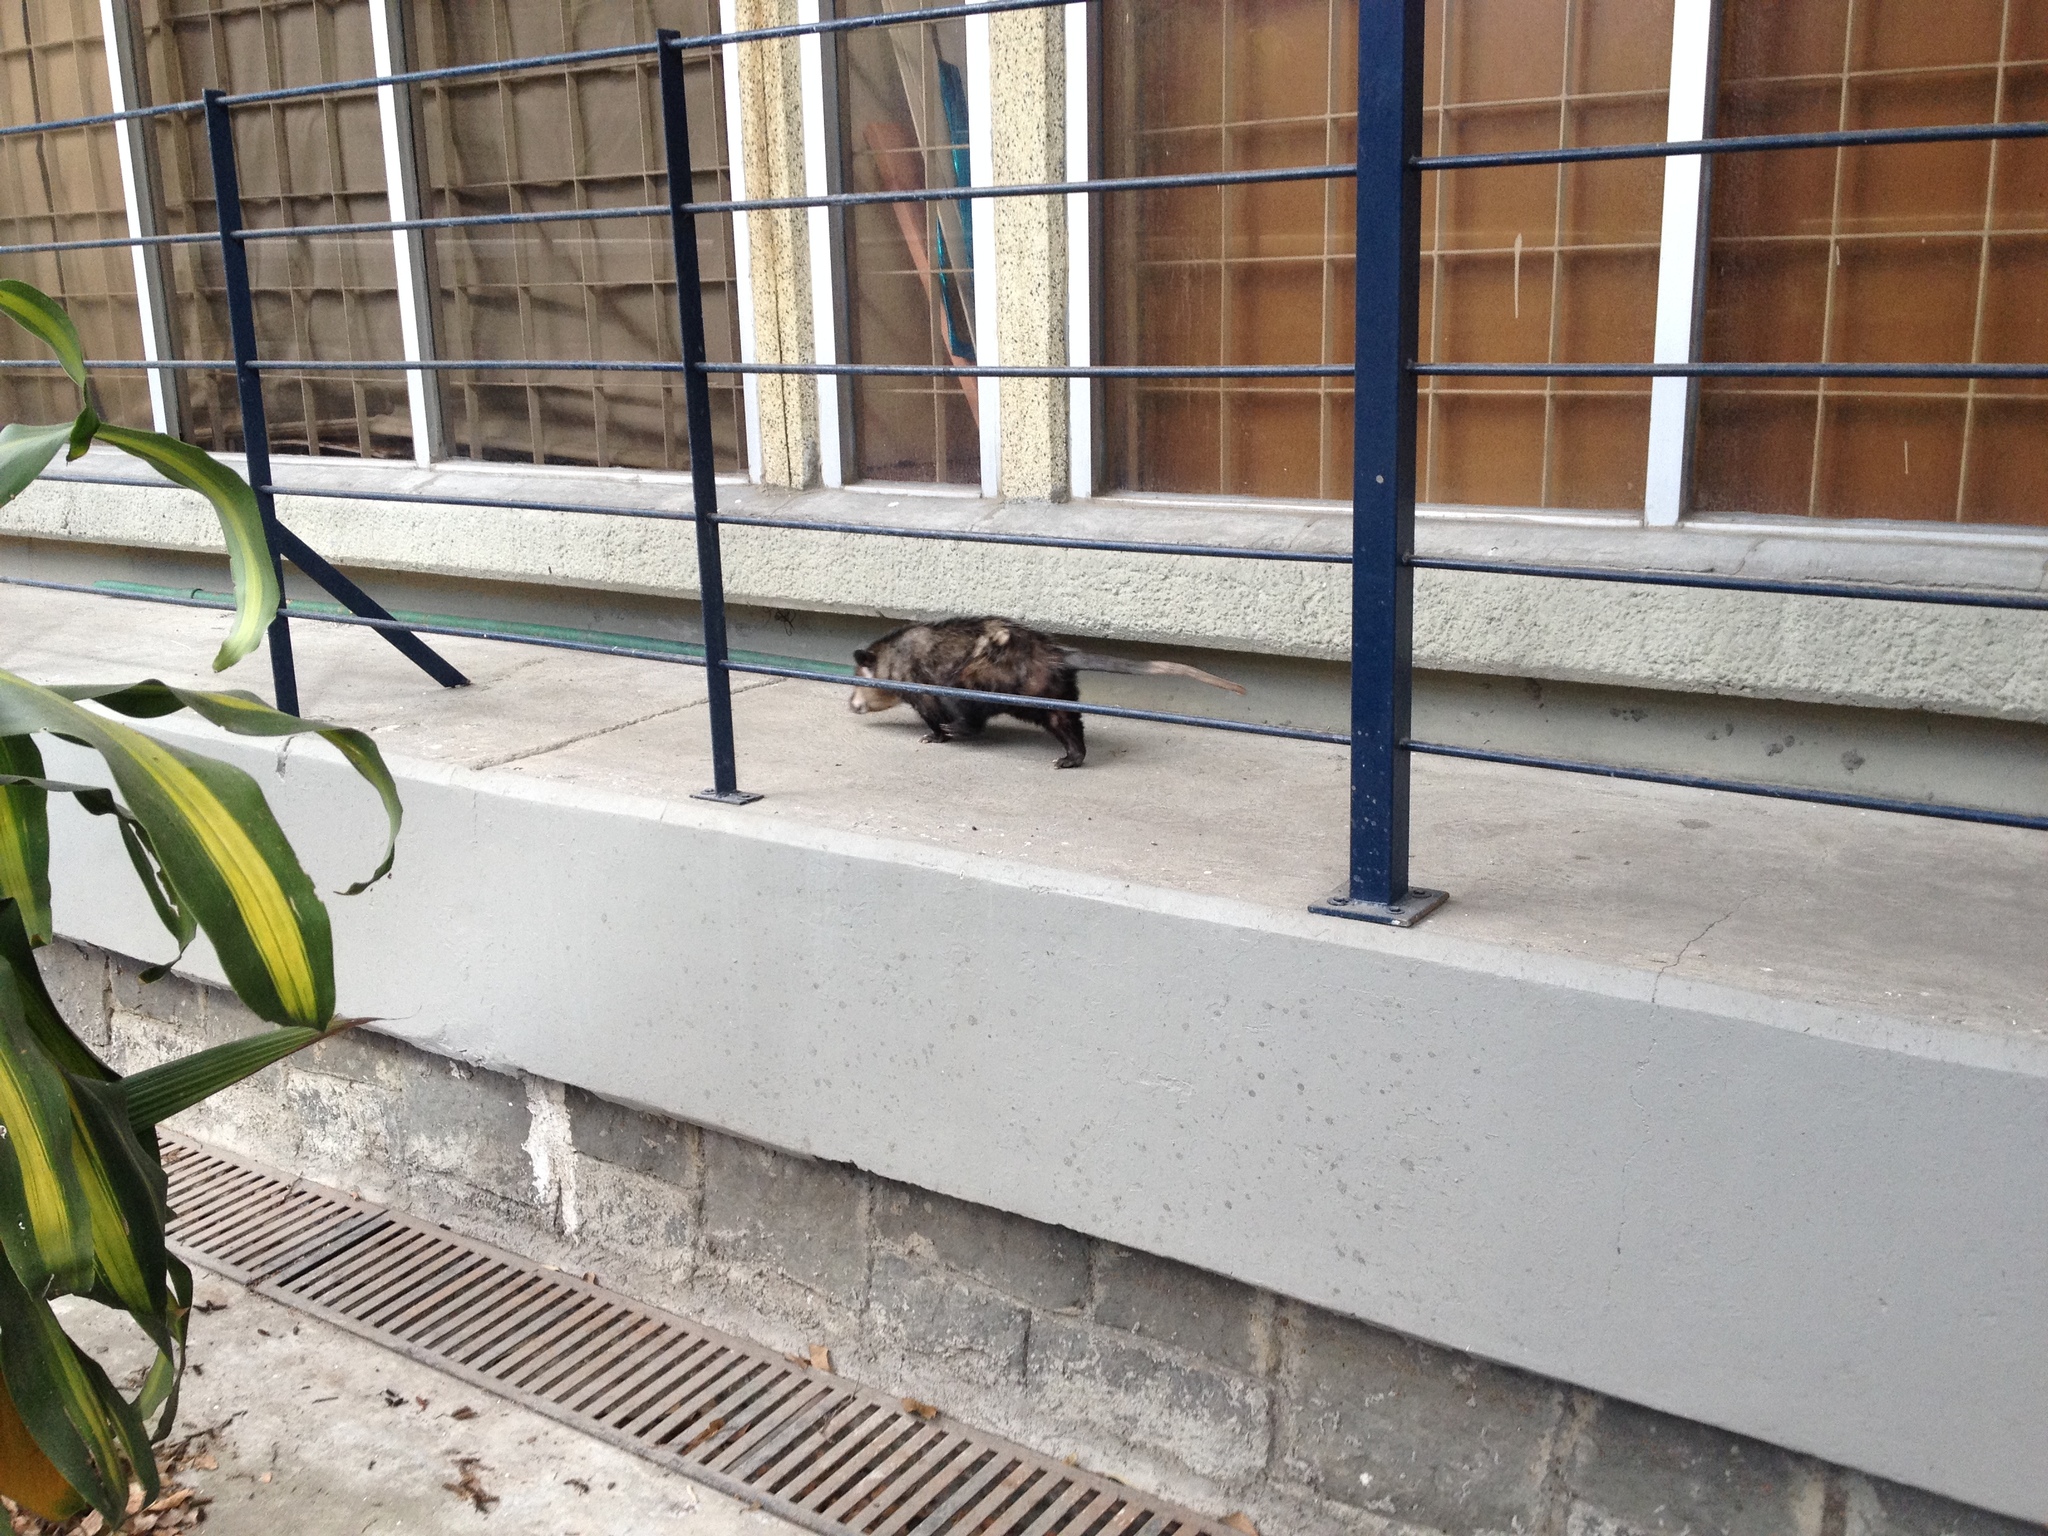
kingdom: Animalia
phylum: Chordata
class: Mammalia
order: Didelphimorphia
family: Didelphidae
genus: Didelphis
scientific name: Didelphis virginiana
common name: Virginia opossum
